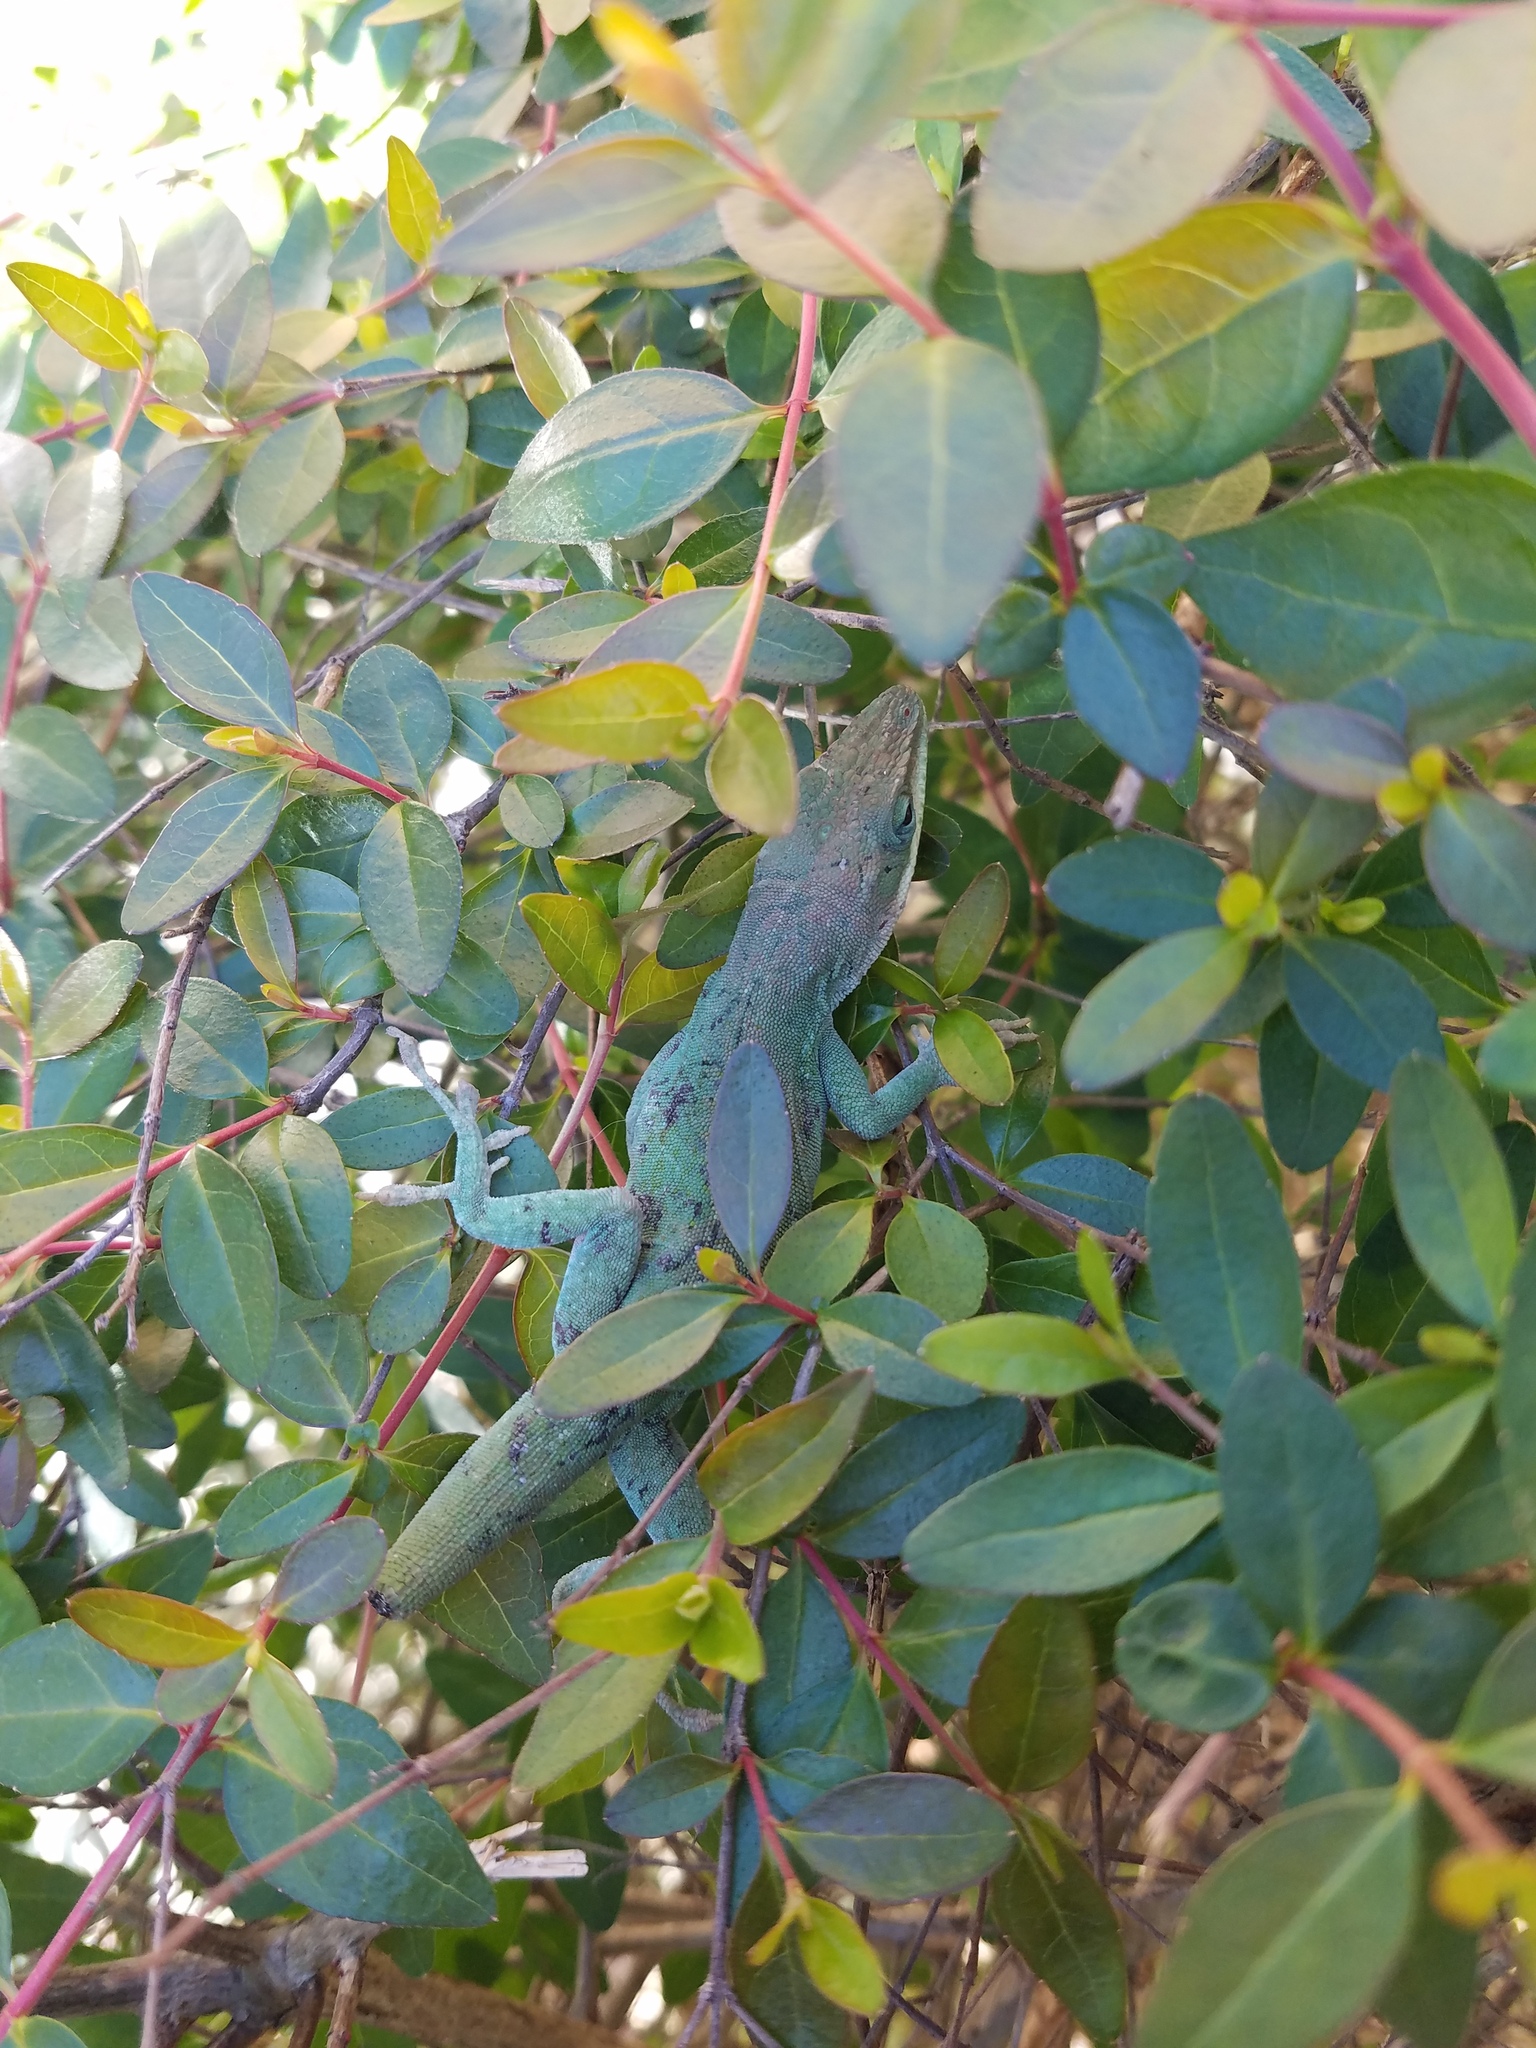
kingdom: Animalia
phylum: Chordata
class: Squamata
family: Dactyloidae
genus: Anolis
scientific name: Anolis carolinensis
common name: Green anole
